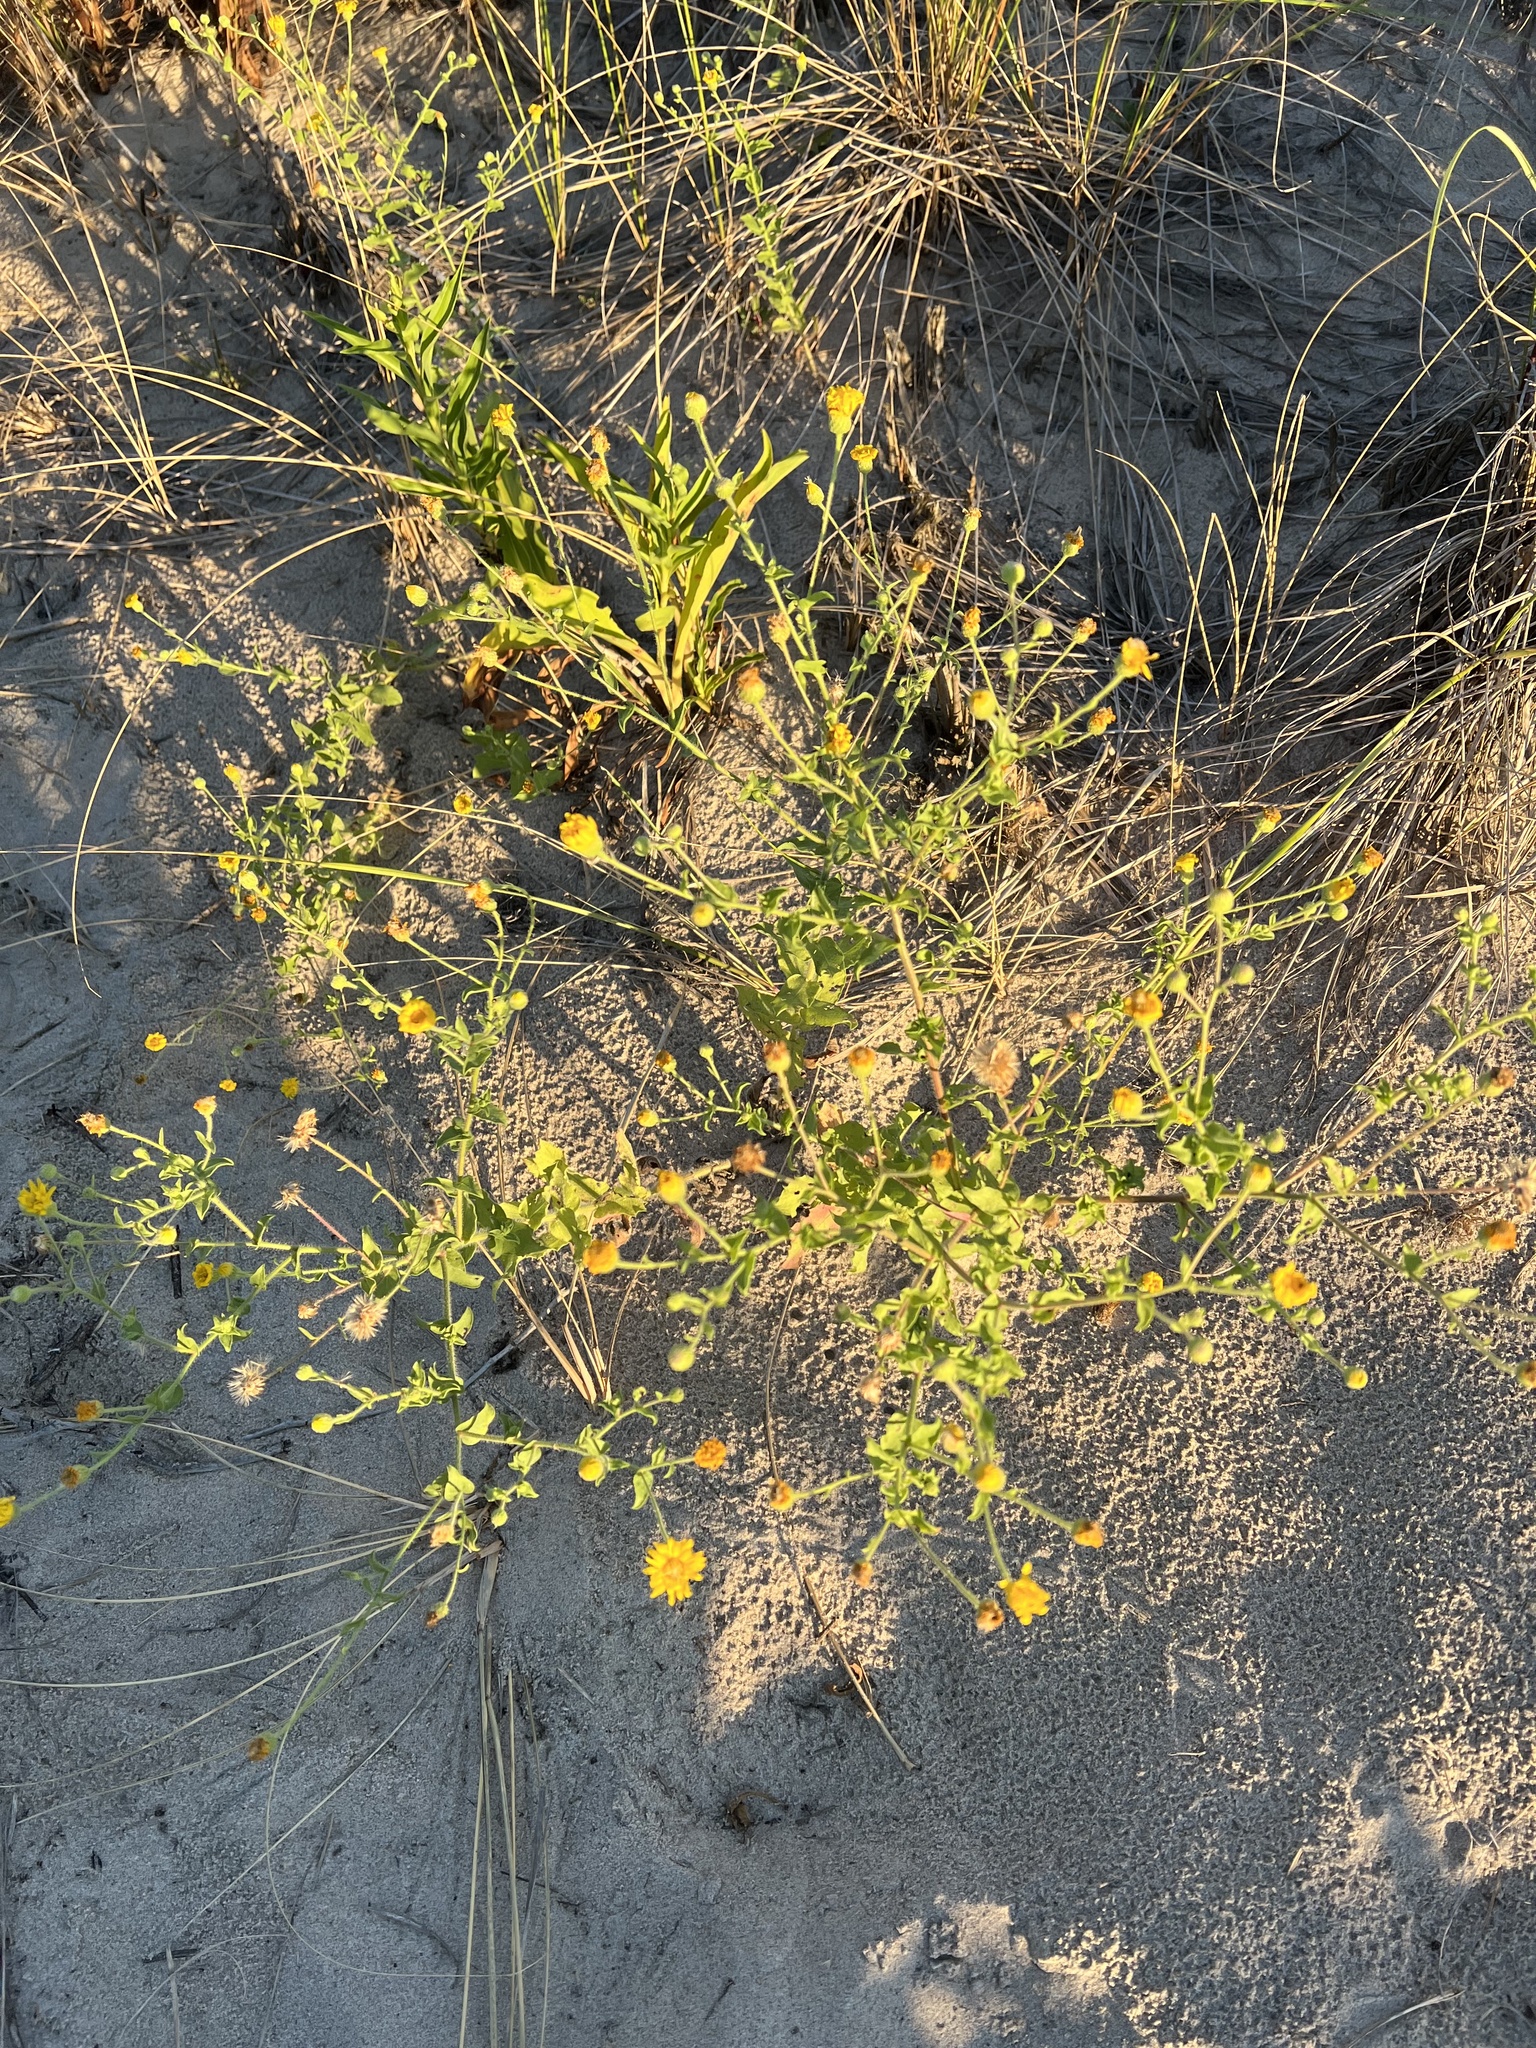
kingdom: Plantae
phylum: Tracheophyta
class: Magnoliopsida
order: Asterales
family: Asteraceae
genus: Heterotheca
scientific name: Heterotheca subaxillaris
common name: Camphorweed
